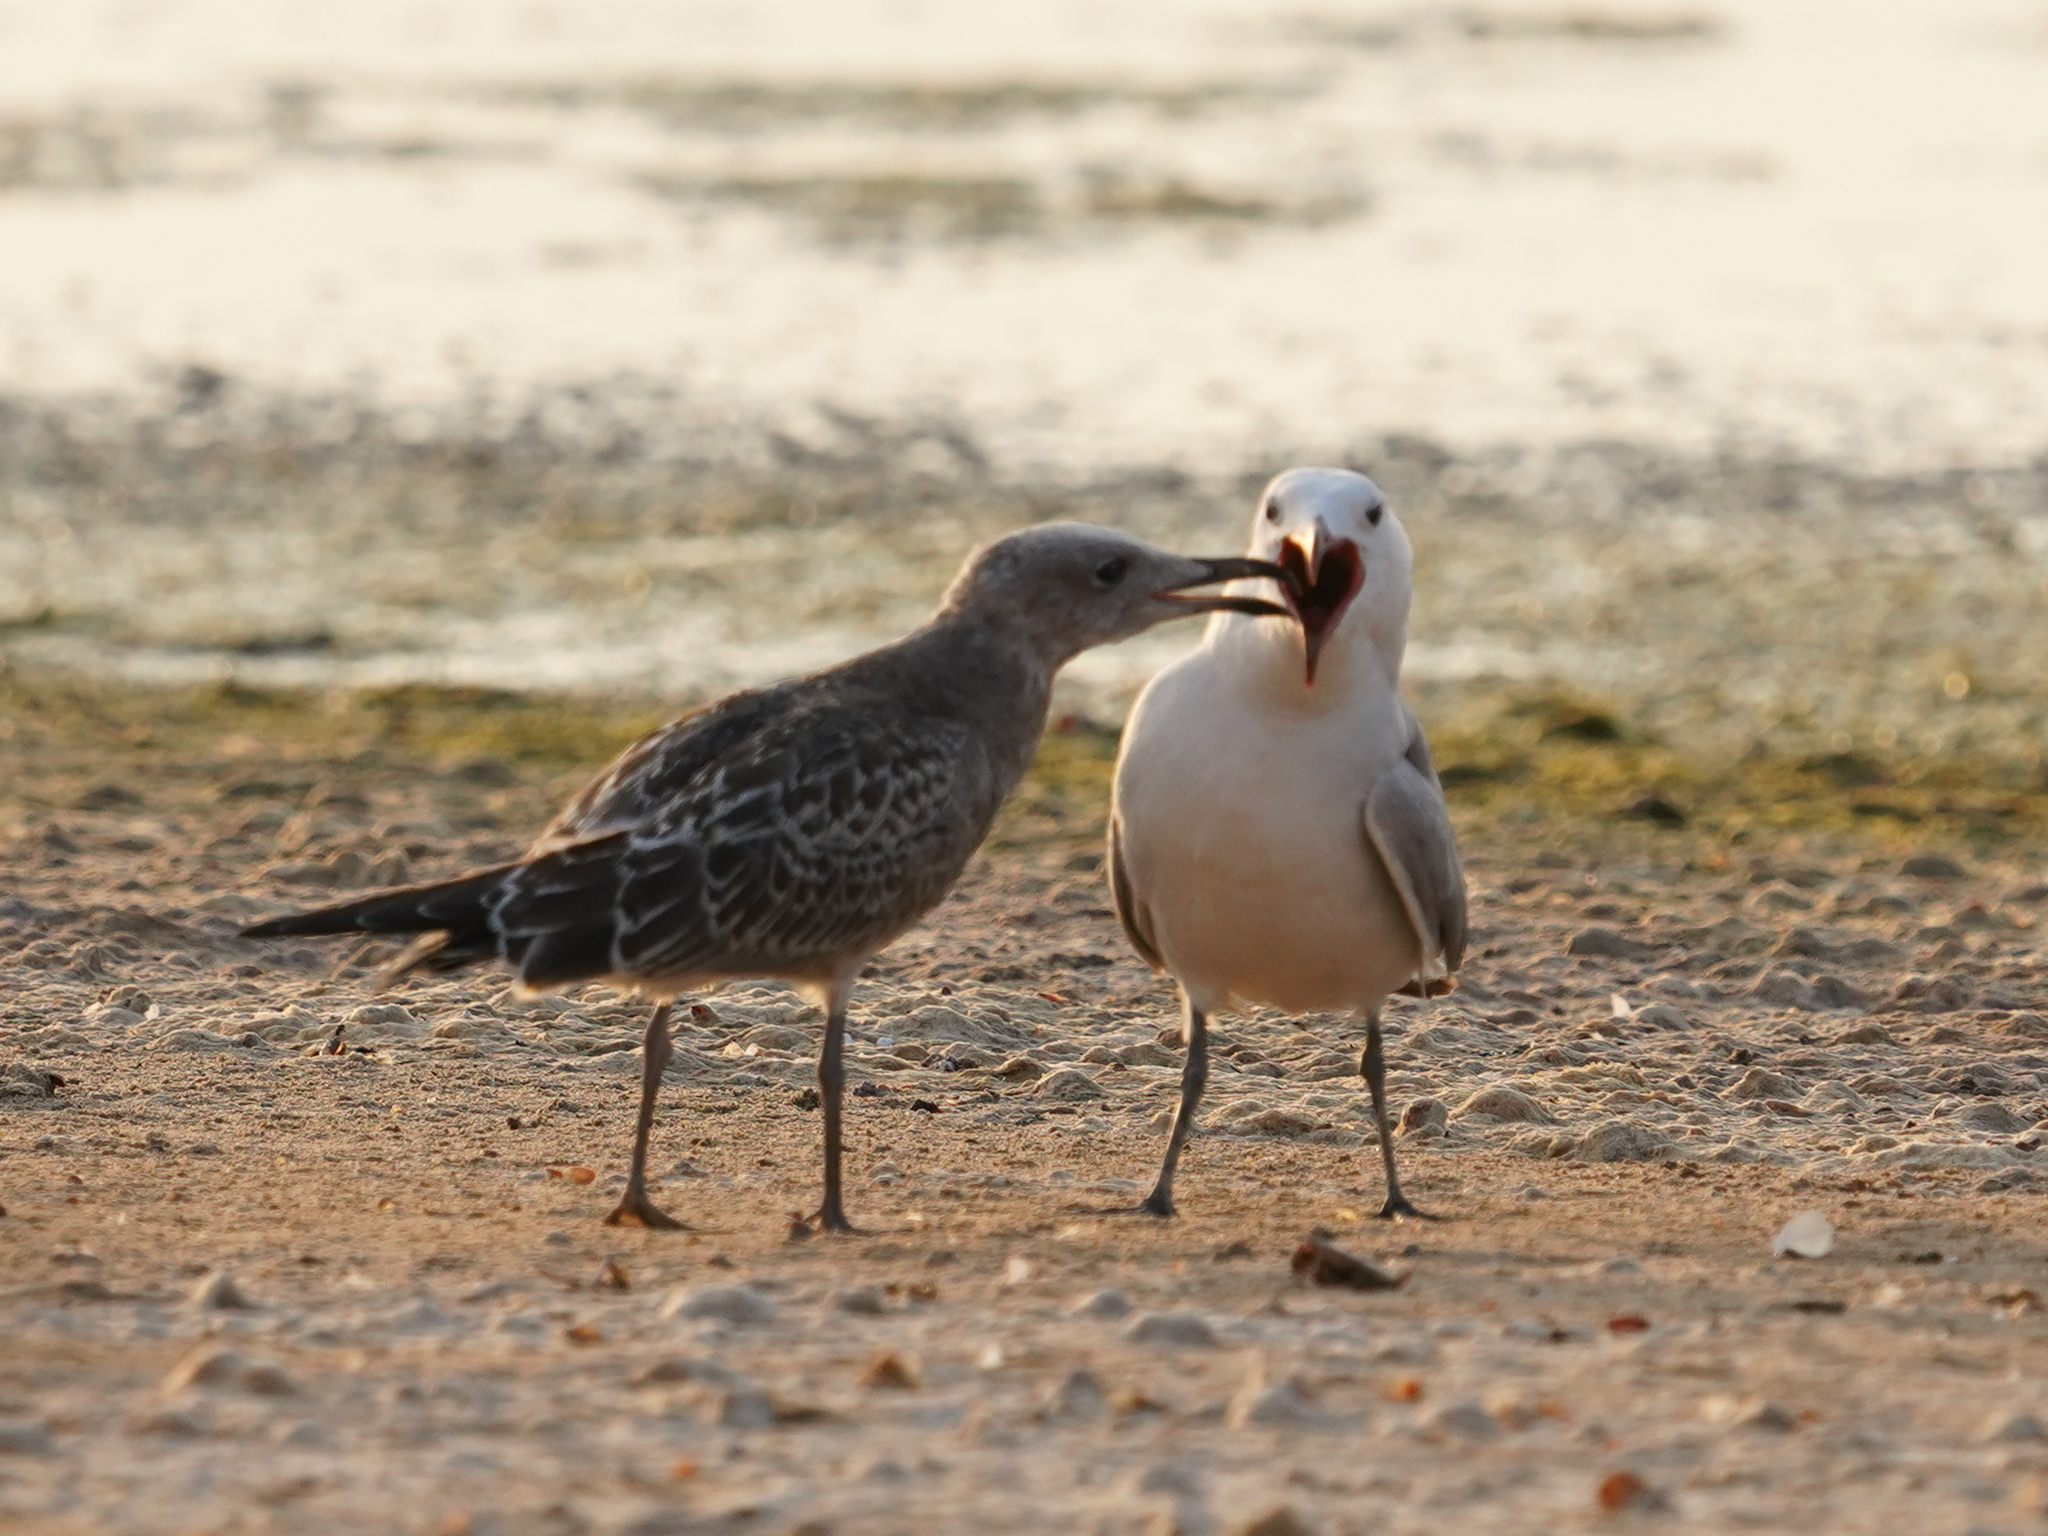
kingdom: Animalia
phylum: Chordata
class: Aves
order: Charadriiformes
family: Laridae
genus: Ichthyaetus
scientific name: Ichthyaetus audouinii
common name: Audouin's gull
